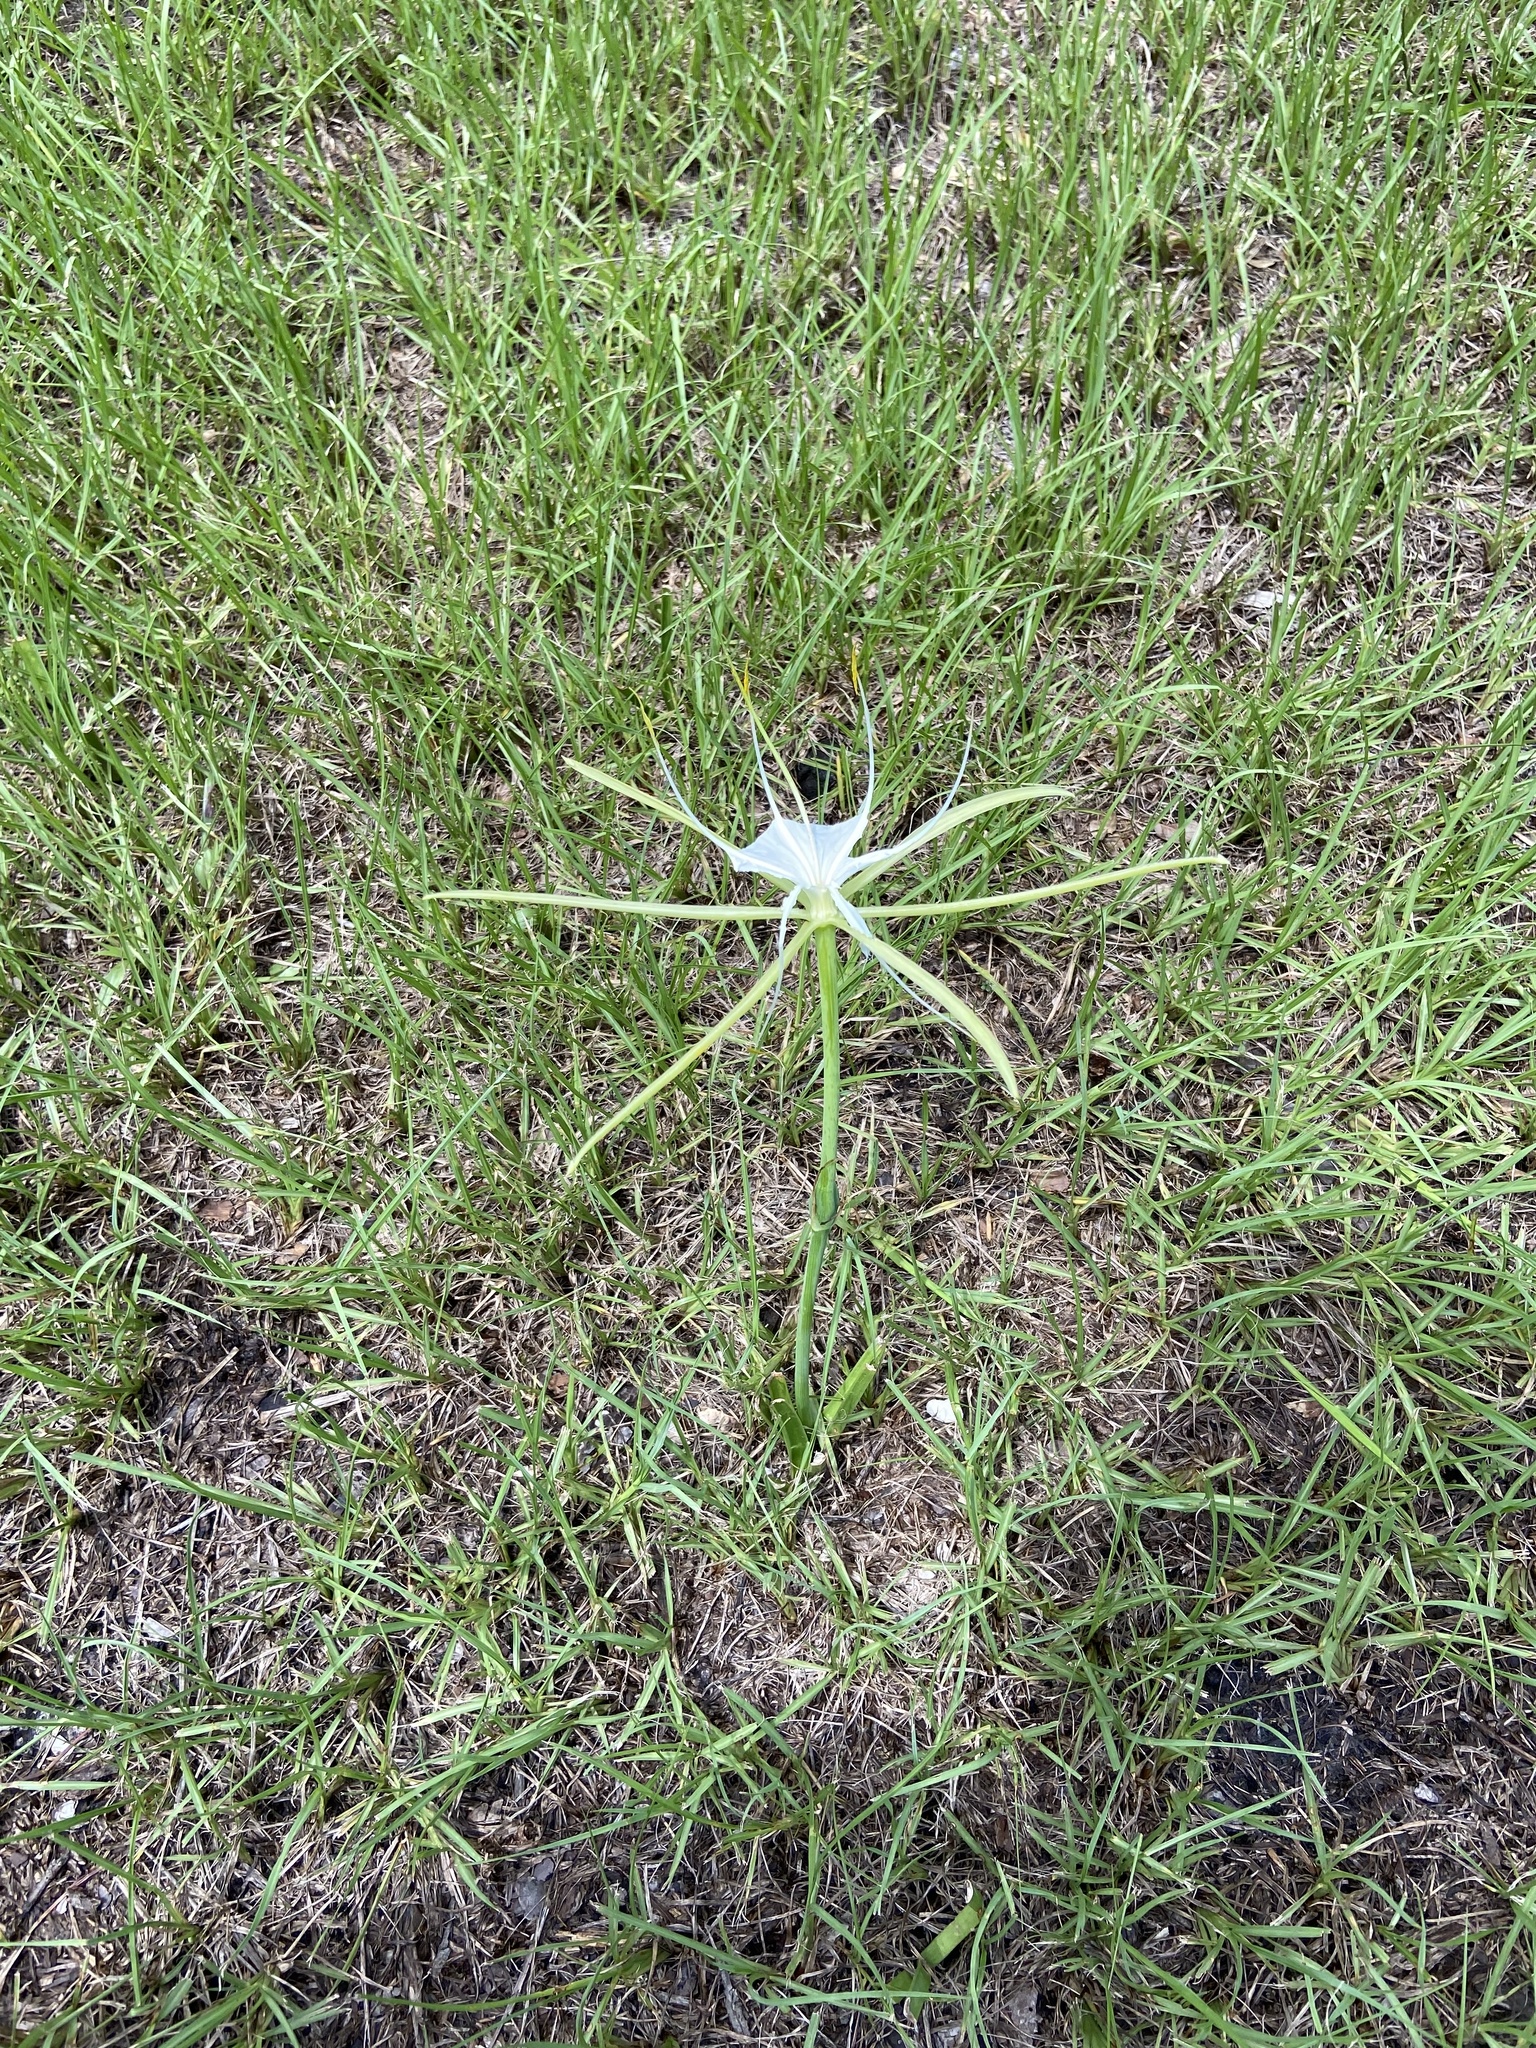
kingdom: Plantae
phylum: Tracheophyta
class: Liliopsida
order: Asparagales
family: Amaryllidaceae
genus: Hymenocallis
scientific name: Hymenocallis palmeri
